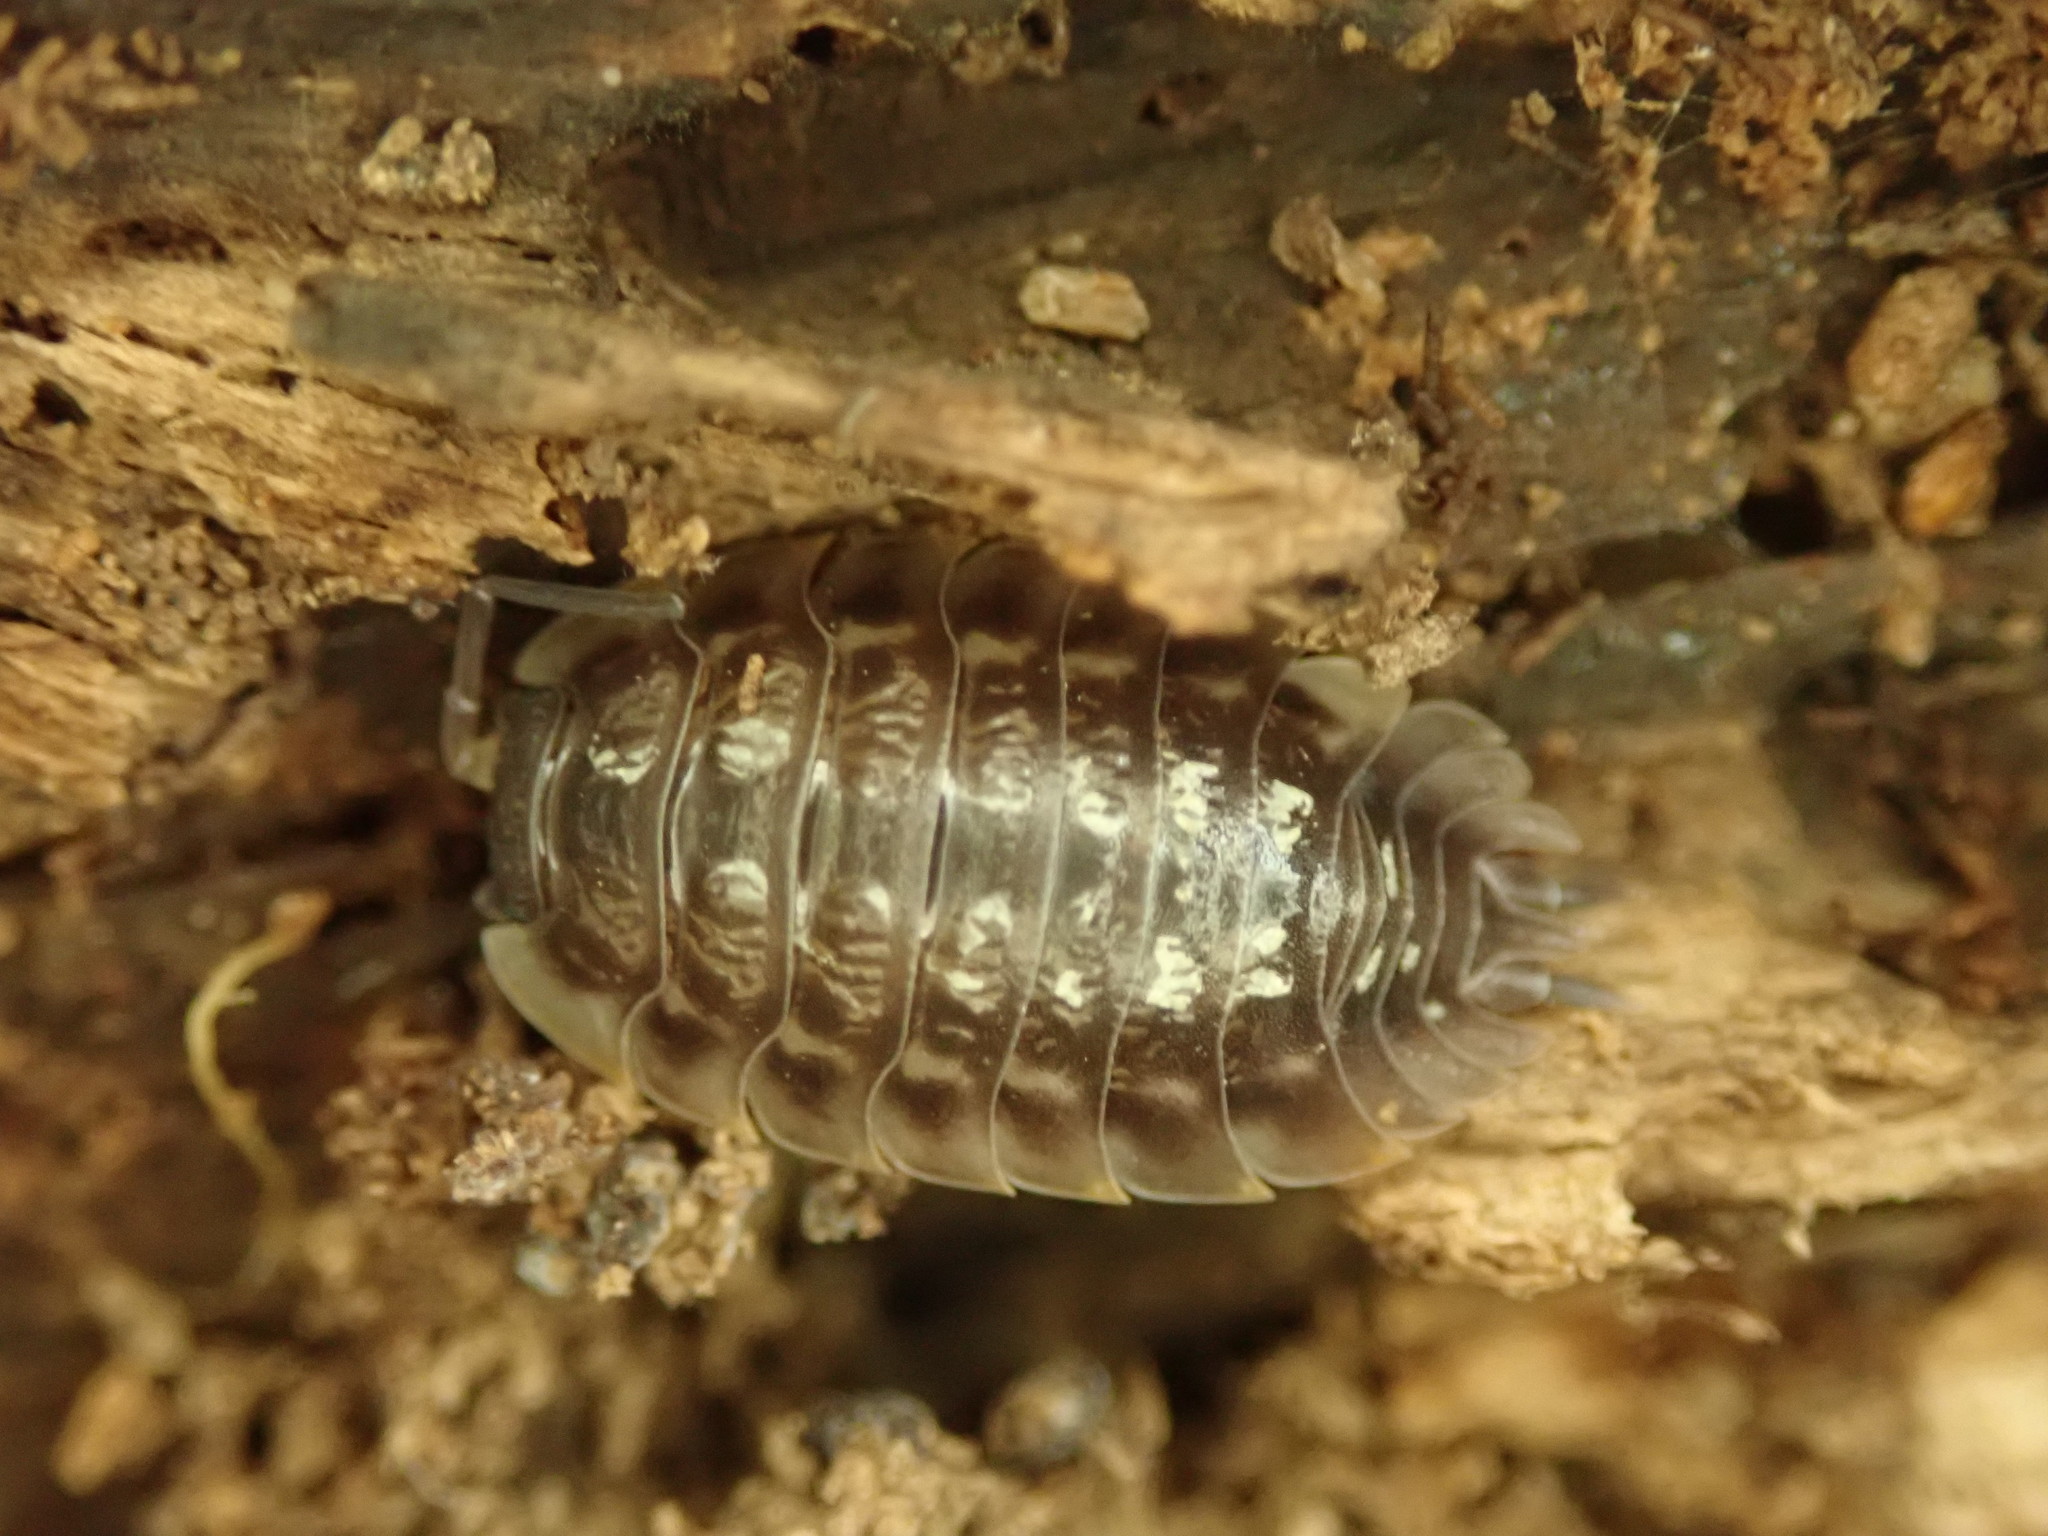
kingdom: Animalia
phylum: Arthropoda
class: Malacostraca
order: Isopoda
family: Oniscidae
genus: Oniscus
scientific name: Oniscus asellus
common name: Common shiny woodlouse
